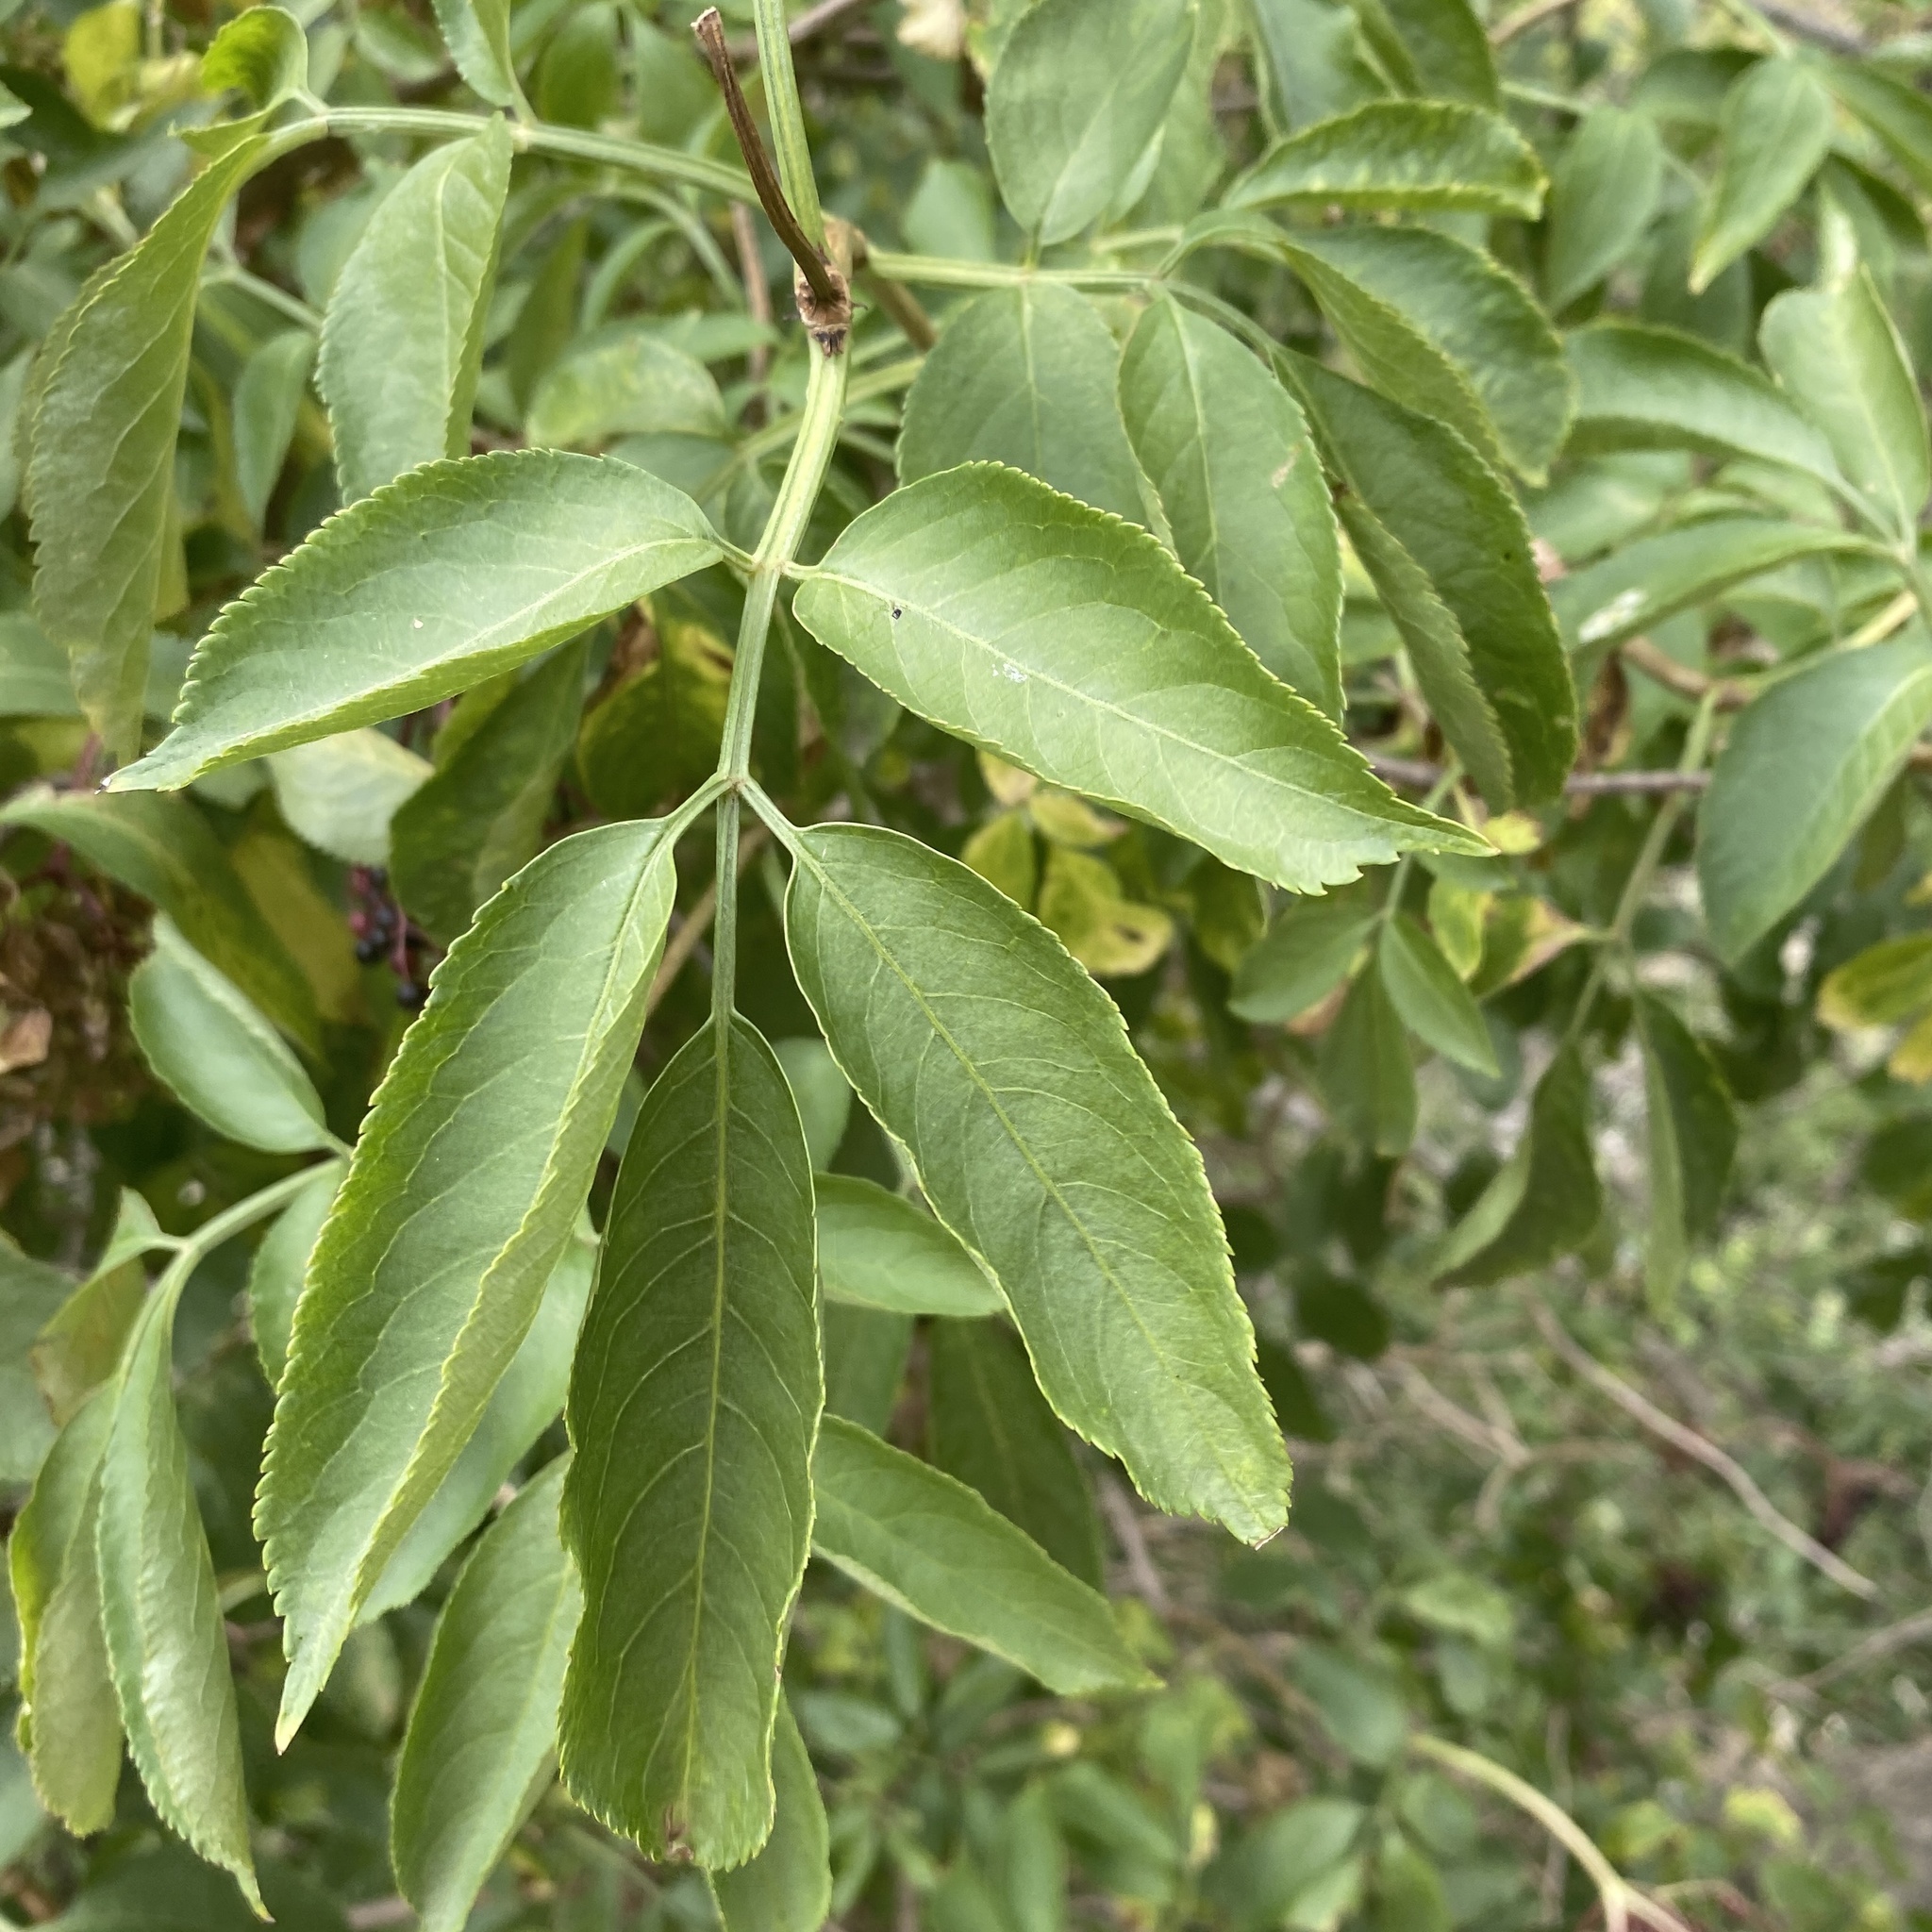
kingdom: Plantae
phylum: Tracheophyta
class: Magnoliopsida
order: Dipsacales
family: Viburnaceae
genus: Sambucus
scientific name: Sambucus nigra
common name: Elder
